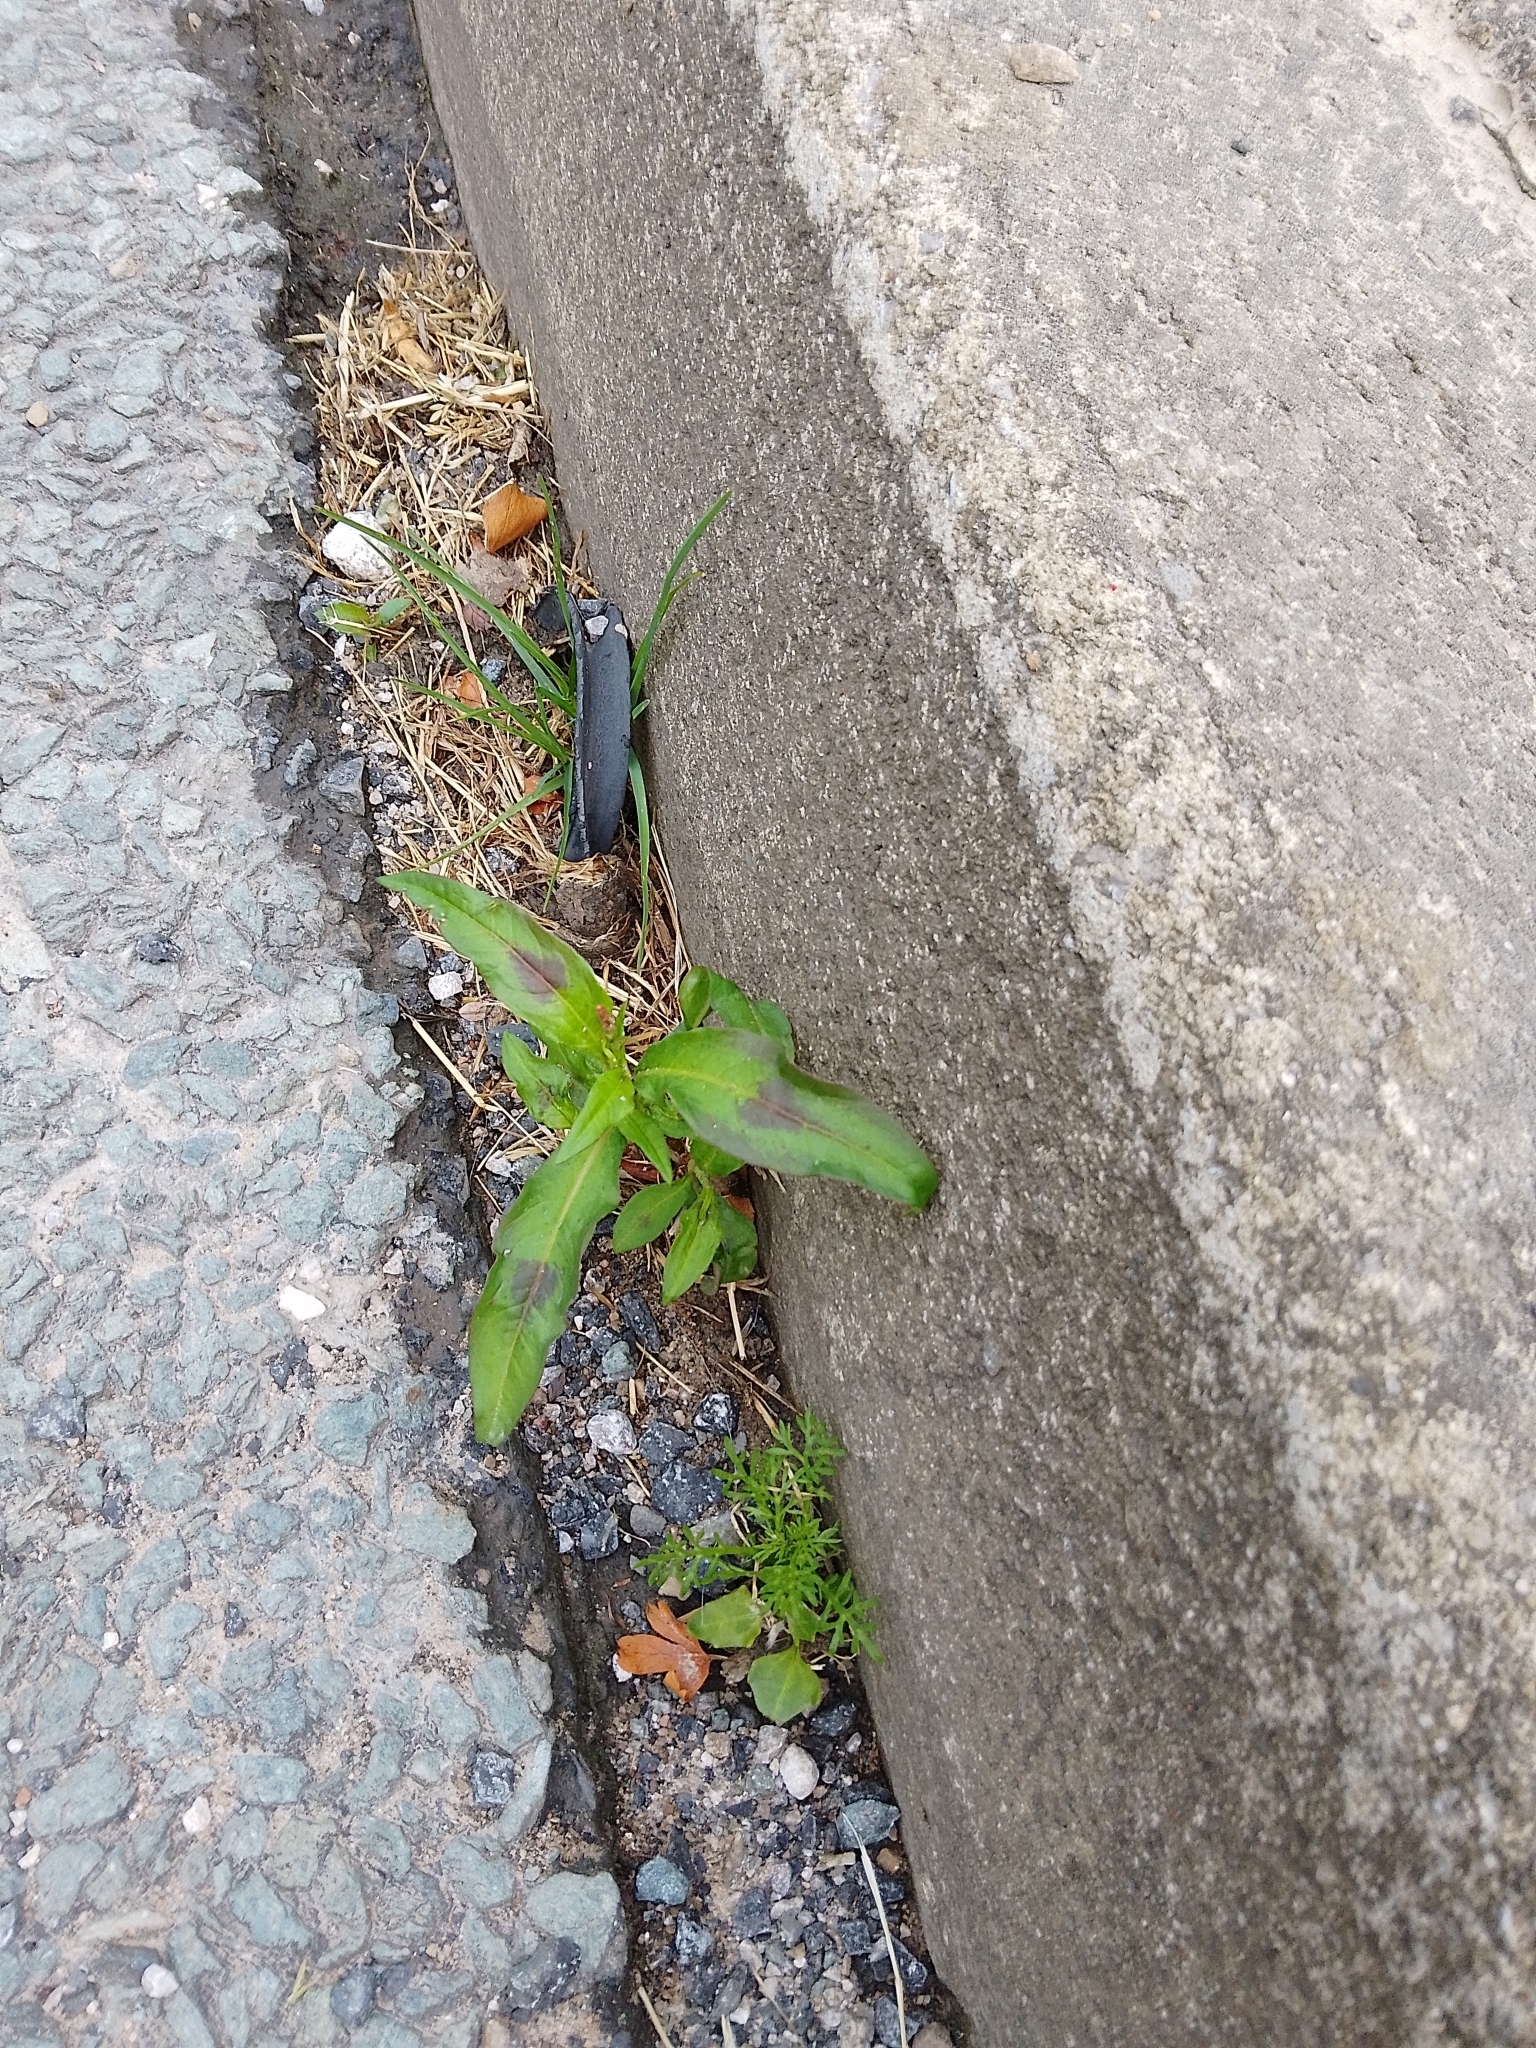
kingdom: Plantae
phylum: Tracheophyta
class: Magnoliopsida
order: Caryophyllales
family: Polygonaceae
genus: Persicaria
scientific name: Persicaria maculosa
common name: Redshank
